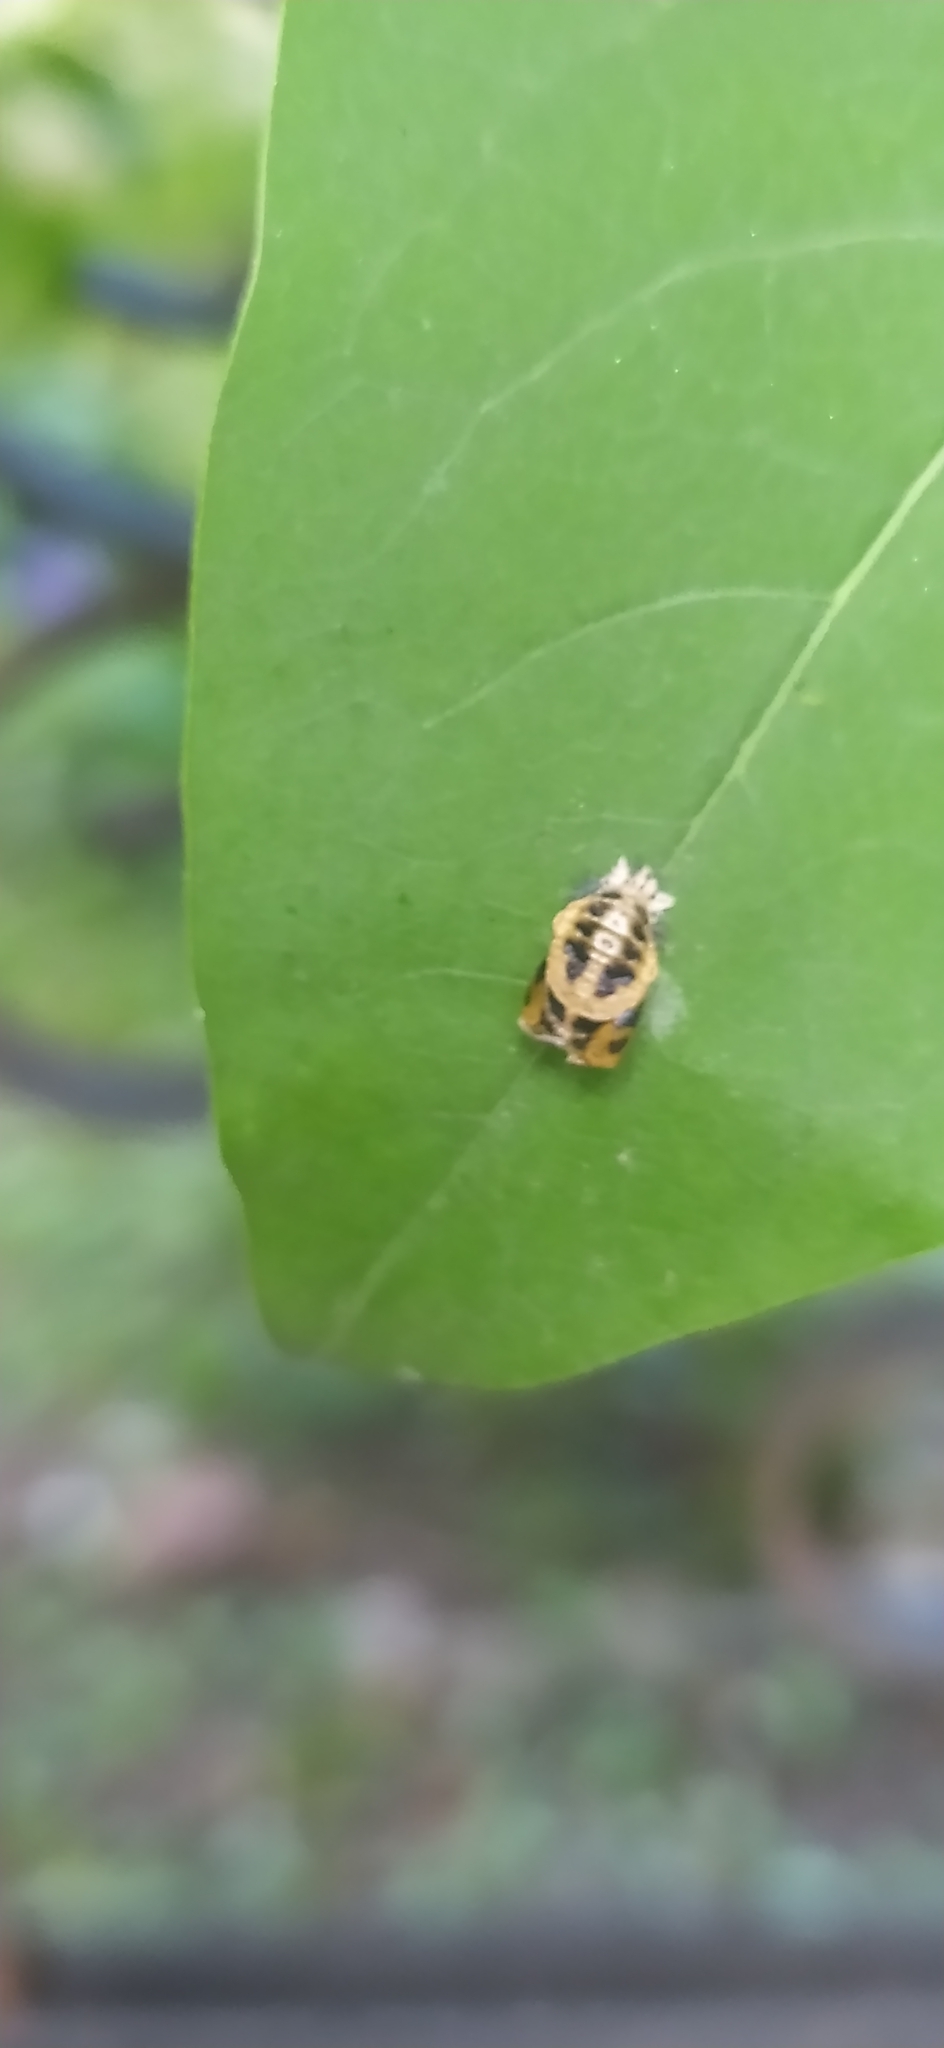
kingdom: Animalia
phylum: Arthropoda
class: Insecta
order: Coleoptera
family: Coccinellidae
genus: Harmonia
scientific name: Harmonia axyridis
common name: Harlequin ladybird
